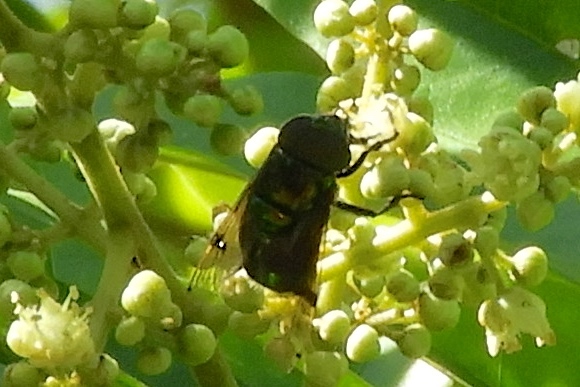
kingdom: Animalia
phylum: Arthropoda
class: Insecta
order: Diptera
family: Syrphidae
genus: Ornidia
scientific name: Ornidia obesa
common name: Syrphid fly
